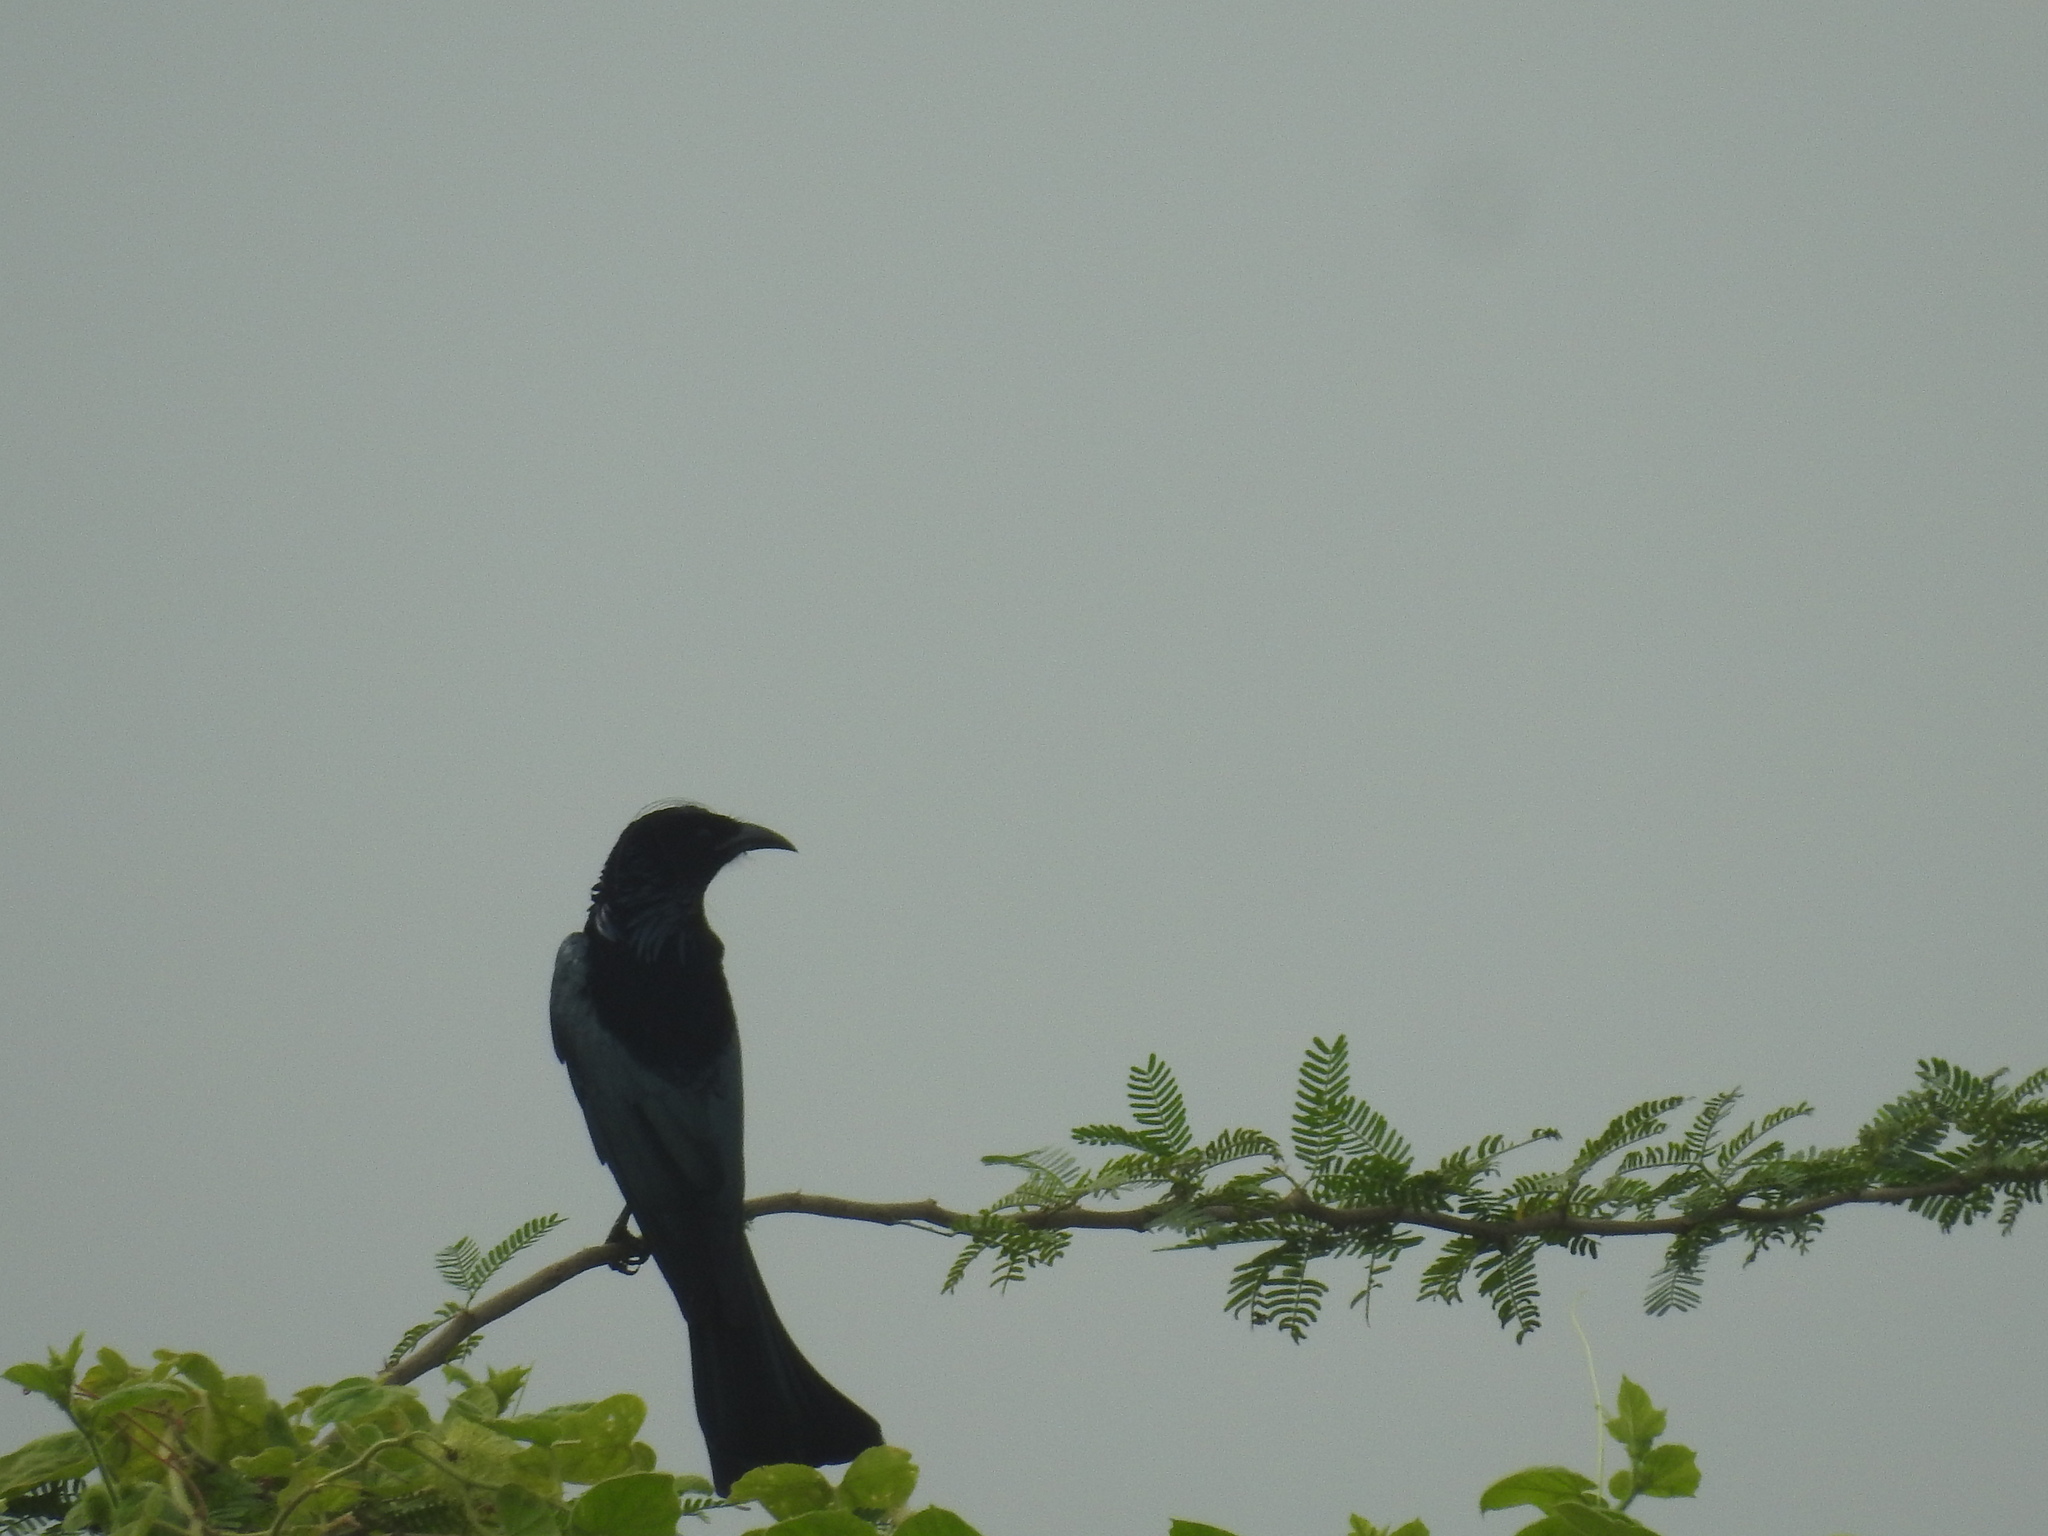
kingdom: Animalia
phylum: Chordata
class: Aves
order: Passeriformes
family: Dicruridae
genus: Dicrurus
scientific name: Dicrurus hottentottus
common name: Hair-crested drongo
